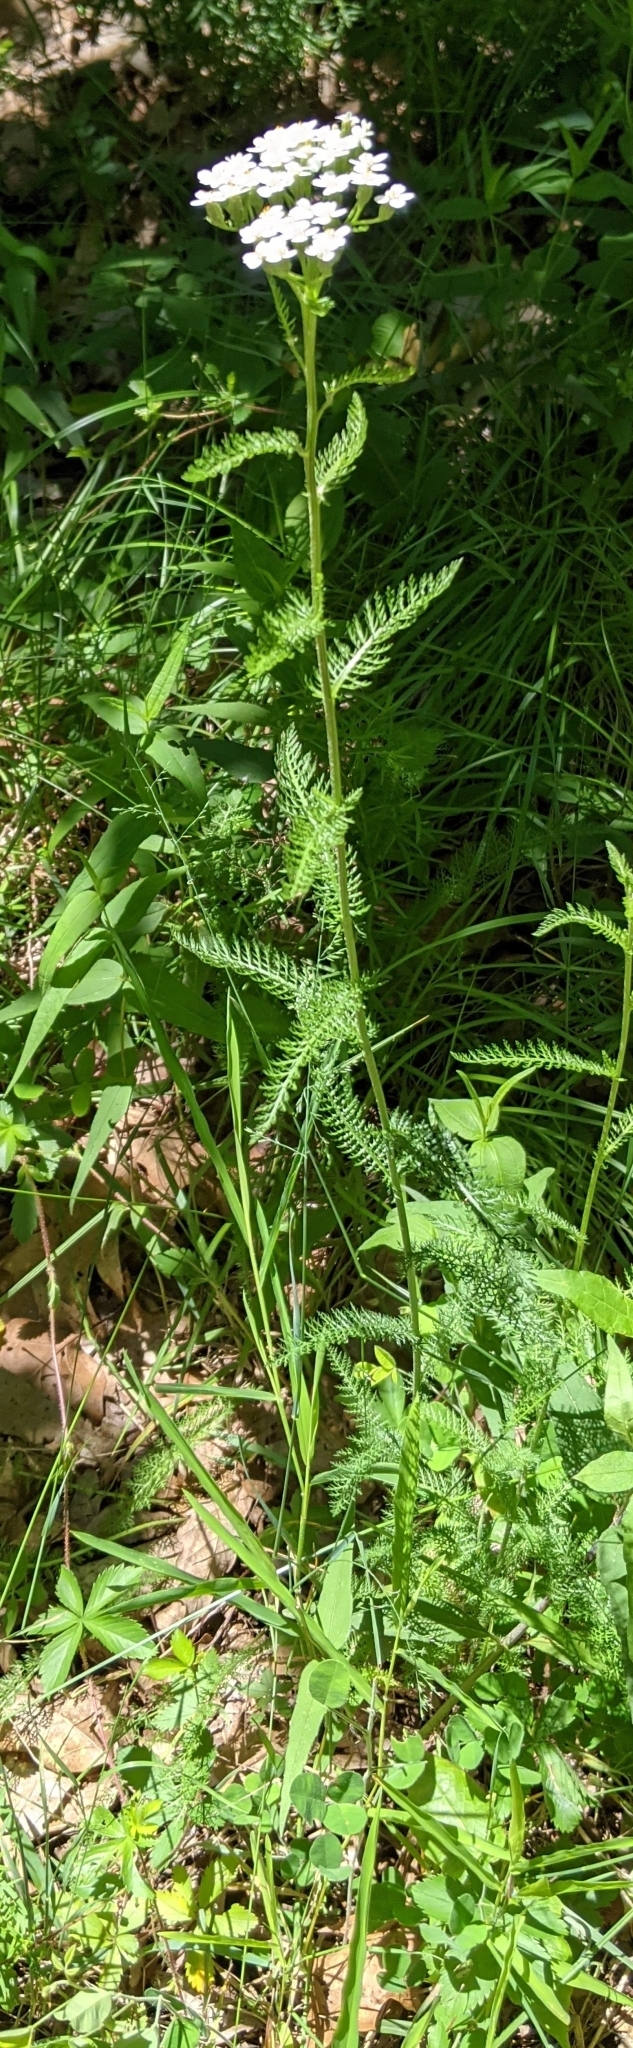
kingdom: Plantae
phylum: Tracheophyta
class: Magnoliopsida
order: Asterales
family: Asteraceae
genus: Achillea
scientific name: Achillea millefolium
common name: Yarrow
